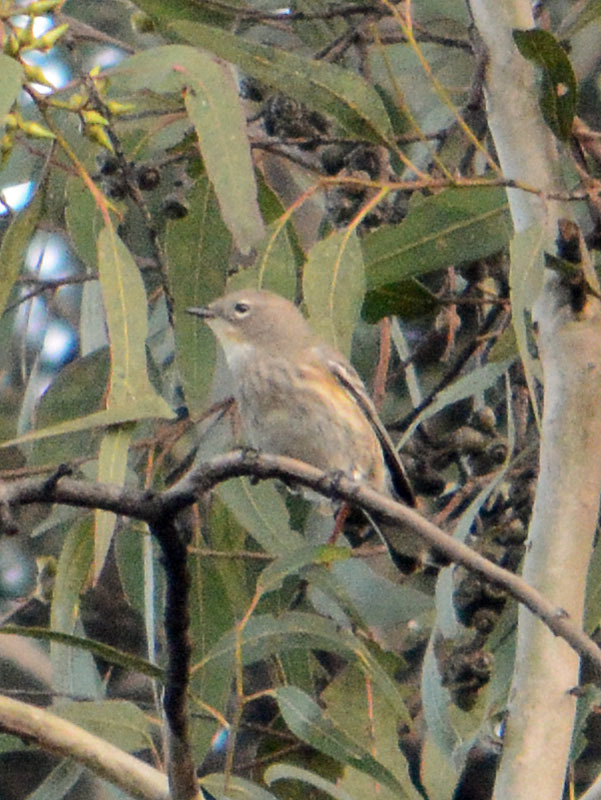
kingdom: Animalia
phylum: Chordata
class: Aves
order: Passeriformes
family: Parulidae
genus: Setophaga
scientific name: Setophaga coronata
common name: Myrtle warbler
